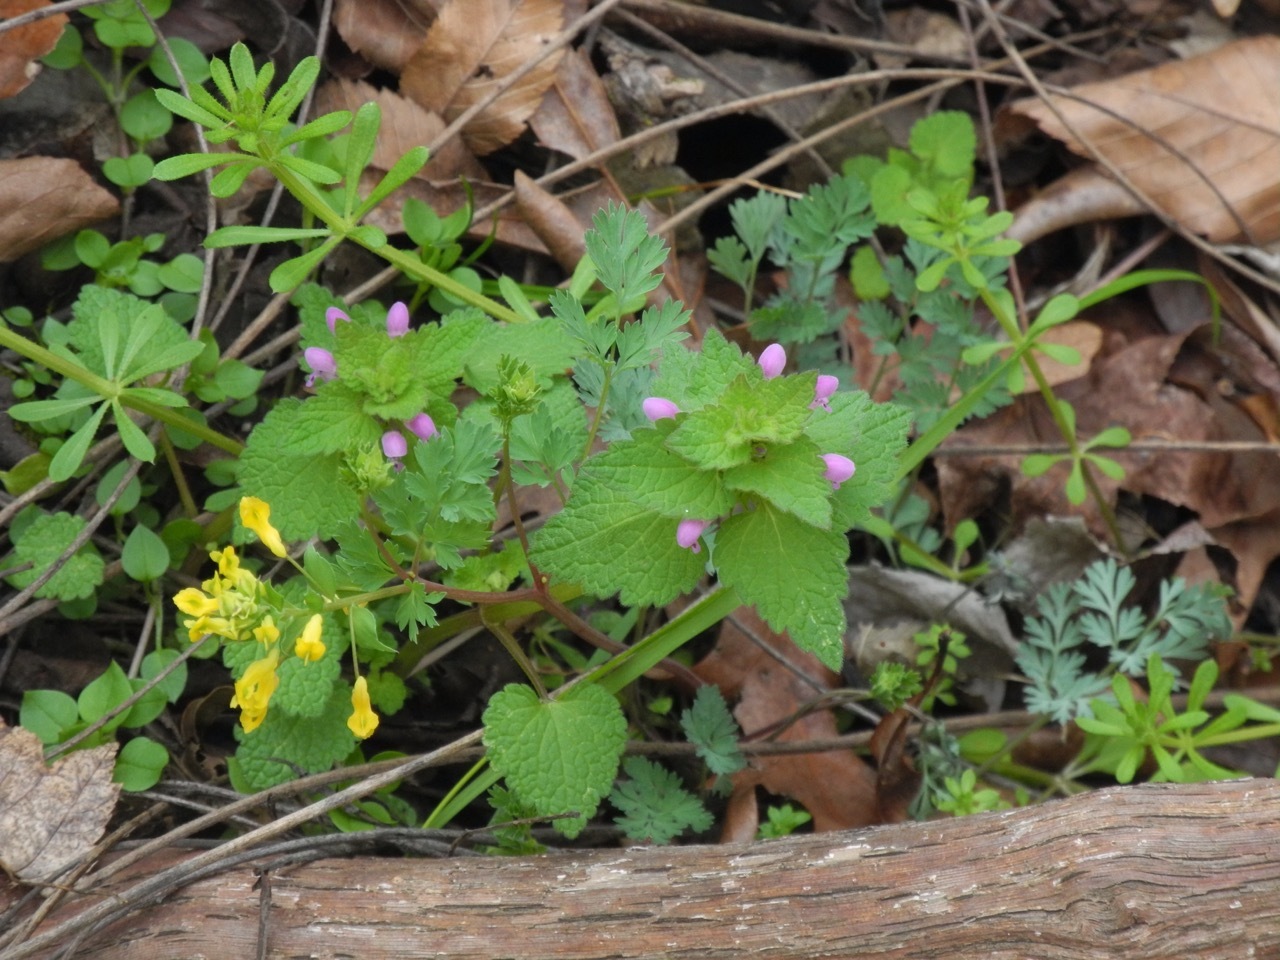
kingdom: Plantae
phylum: Tracheophyta
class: Magnoliopsida
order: Gentianales
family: Rubiaceae
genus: Galium
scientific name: Galium aparine
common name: Cleavers
